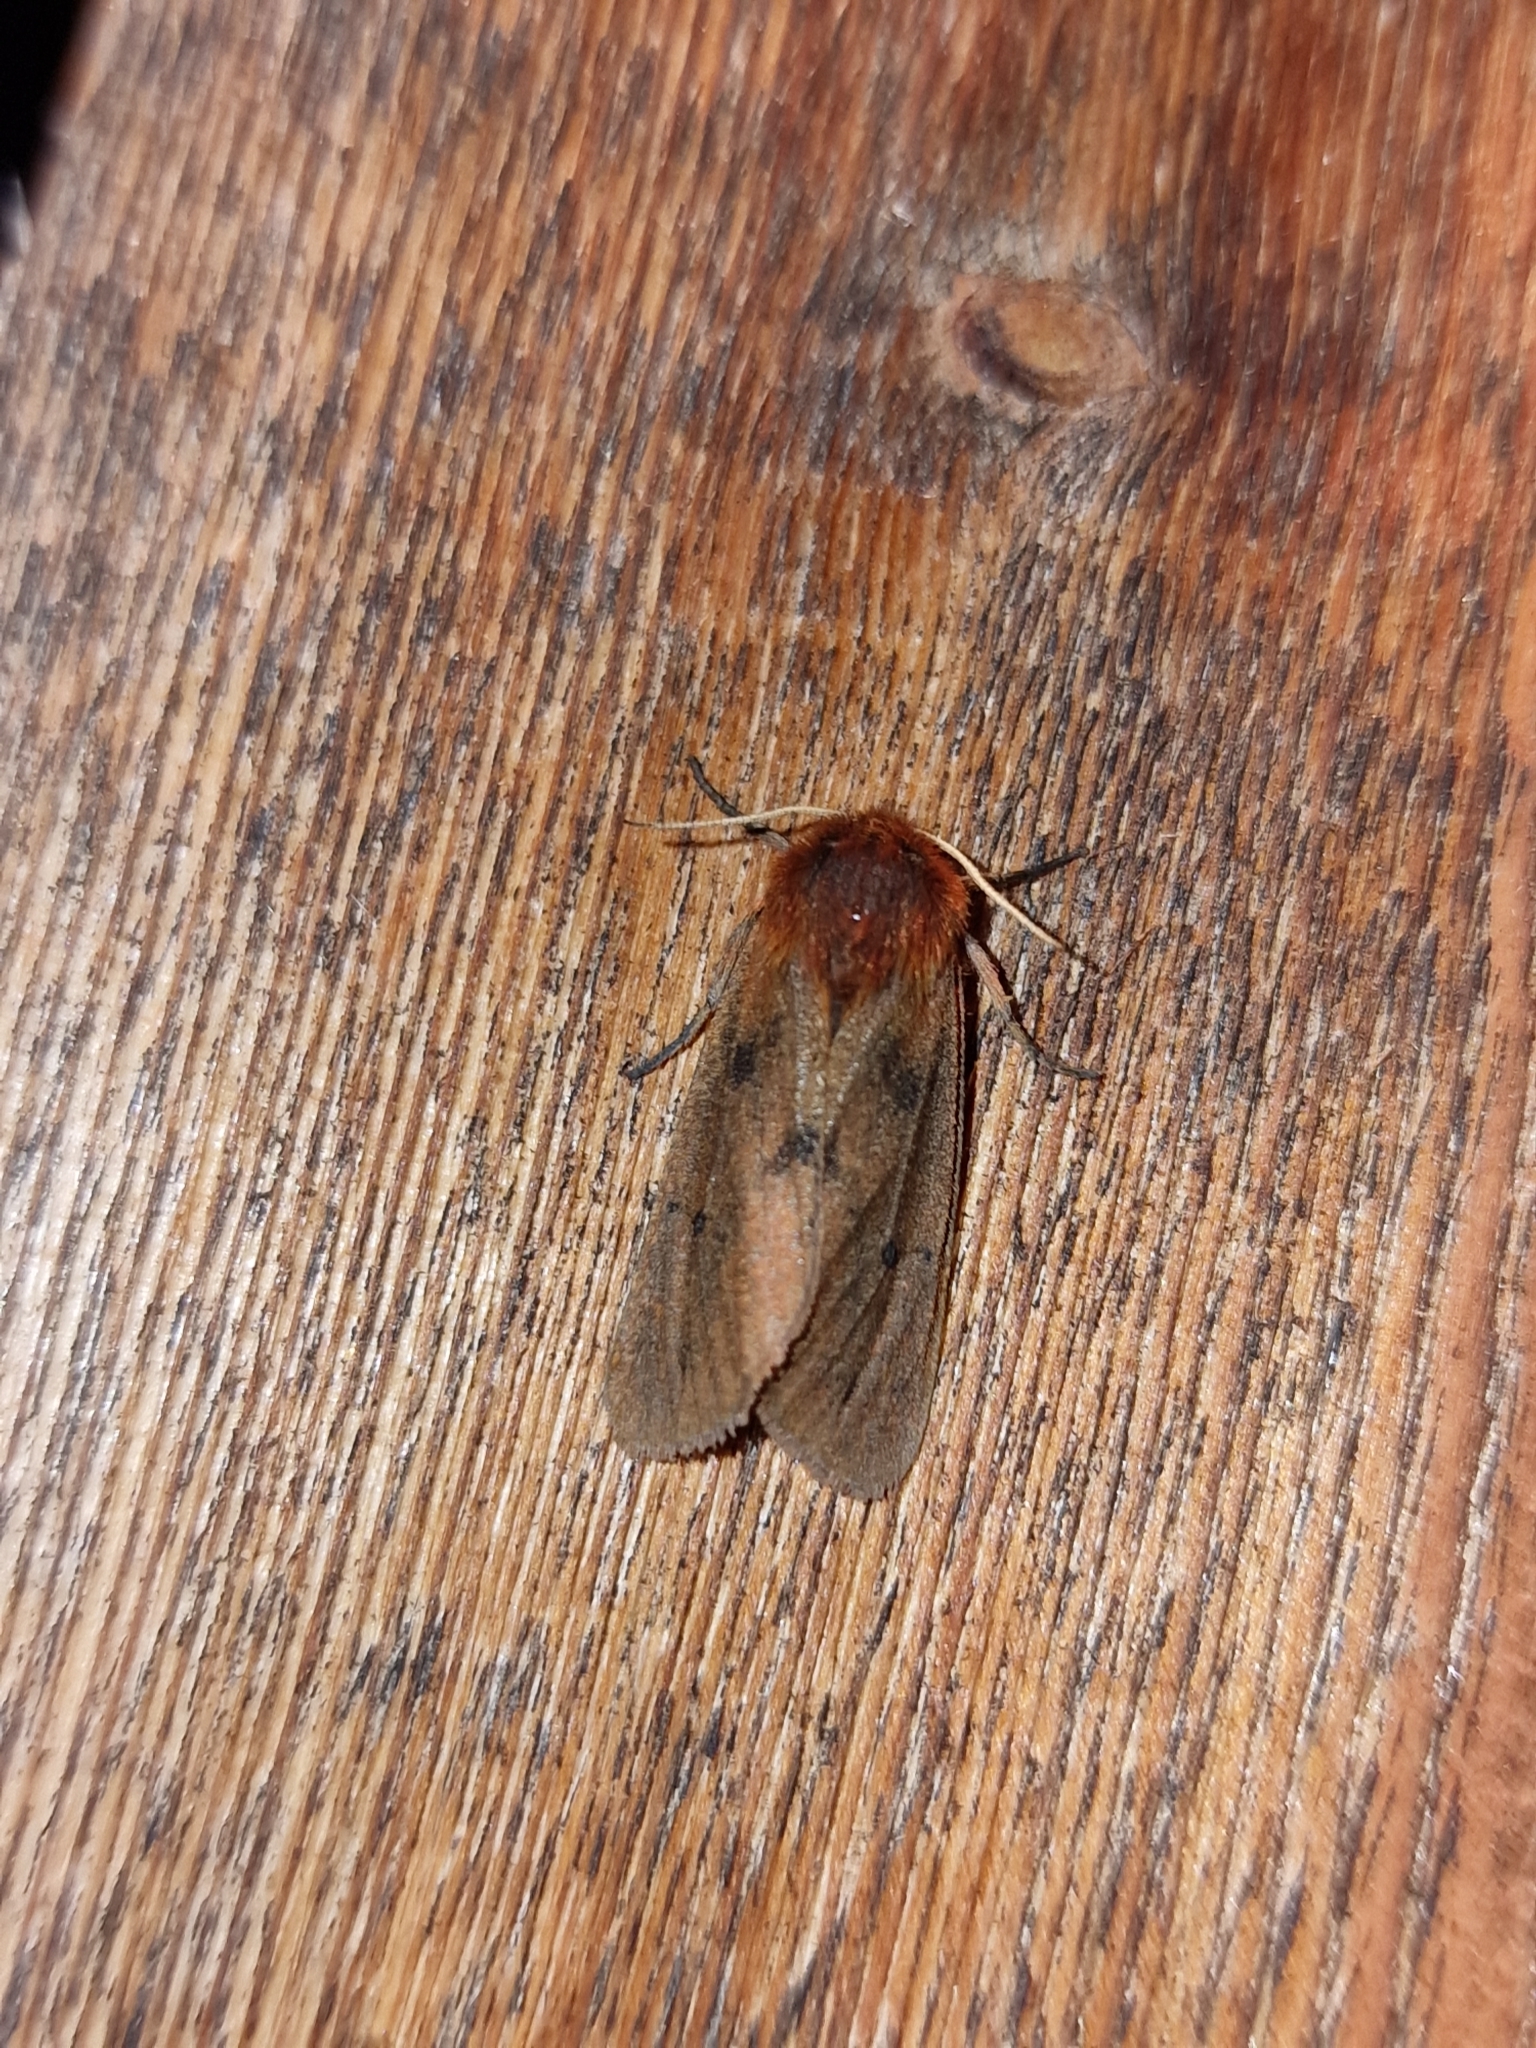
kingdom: Animalia
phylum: Arthropoda
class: Insecta
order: Lepidoptera
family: Erebidae
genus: Phragmatobia
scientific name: Phragmatobia fuliginosa
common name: Ruby tiger
